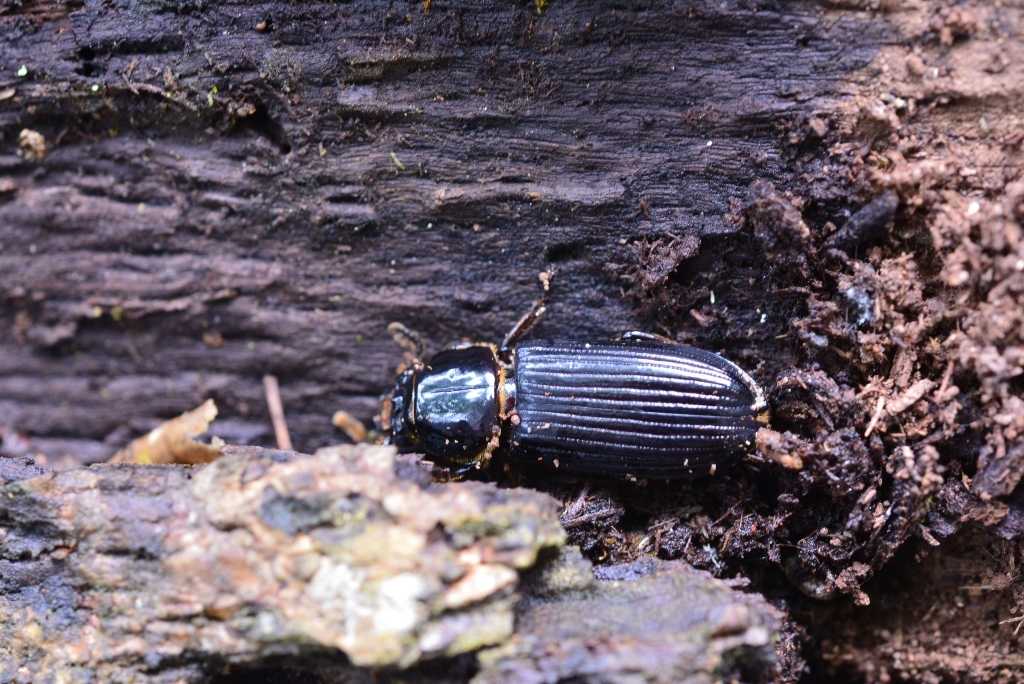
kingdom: Animalia
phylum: Arthropoda
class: Insecta
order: Coleoptera
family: Passalidae
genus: Odontotaenius
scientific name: Odontotaenius striatopunctatus
